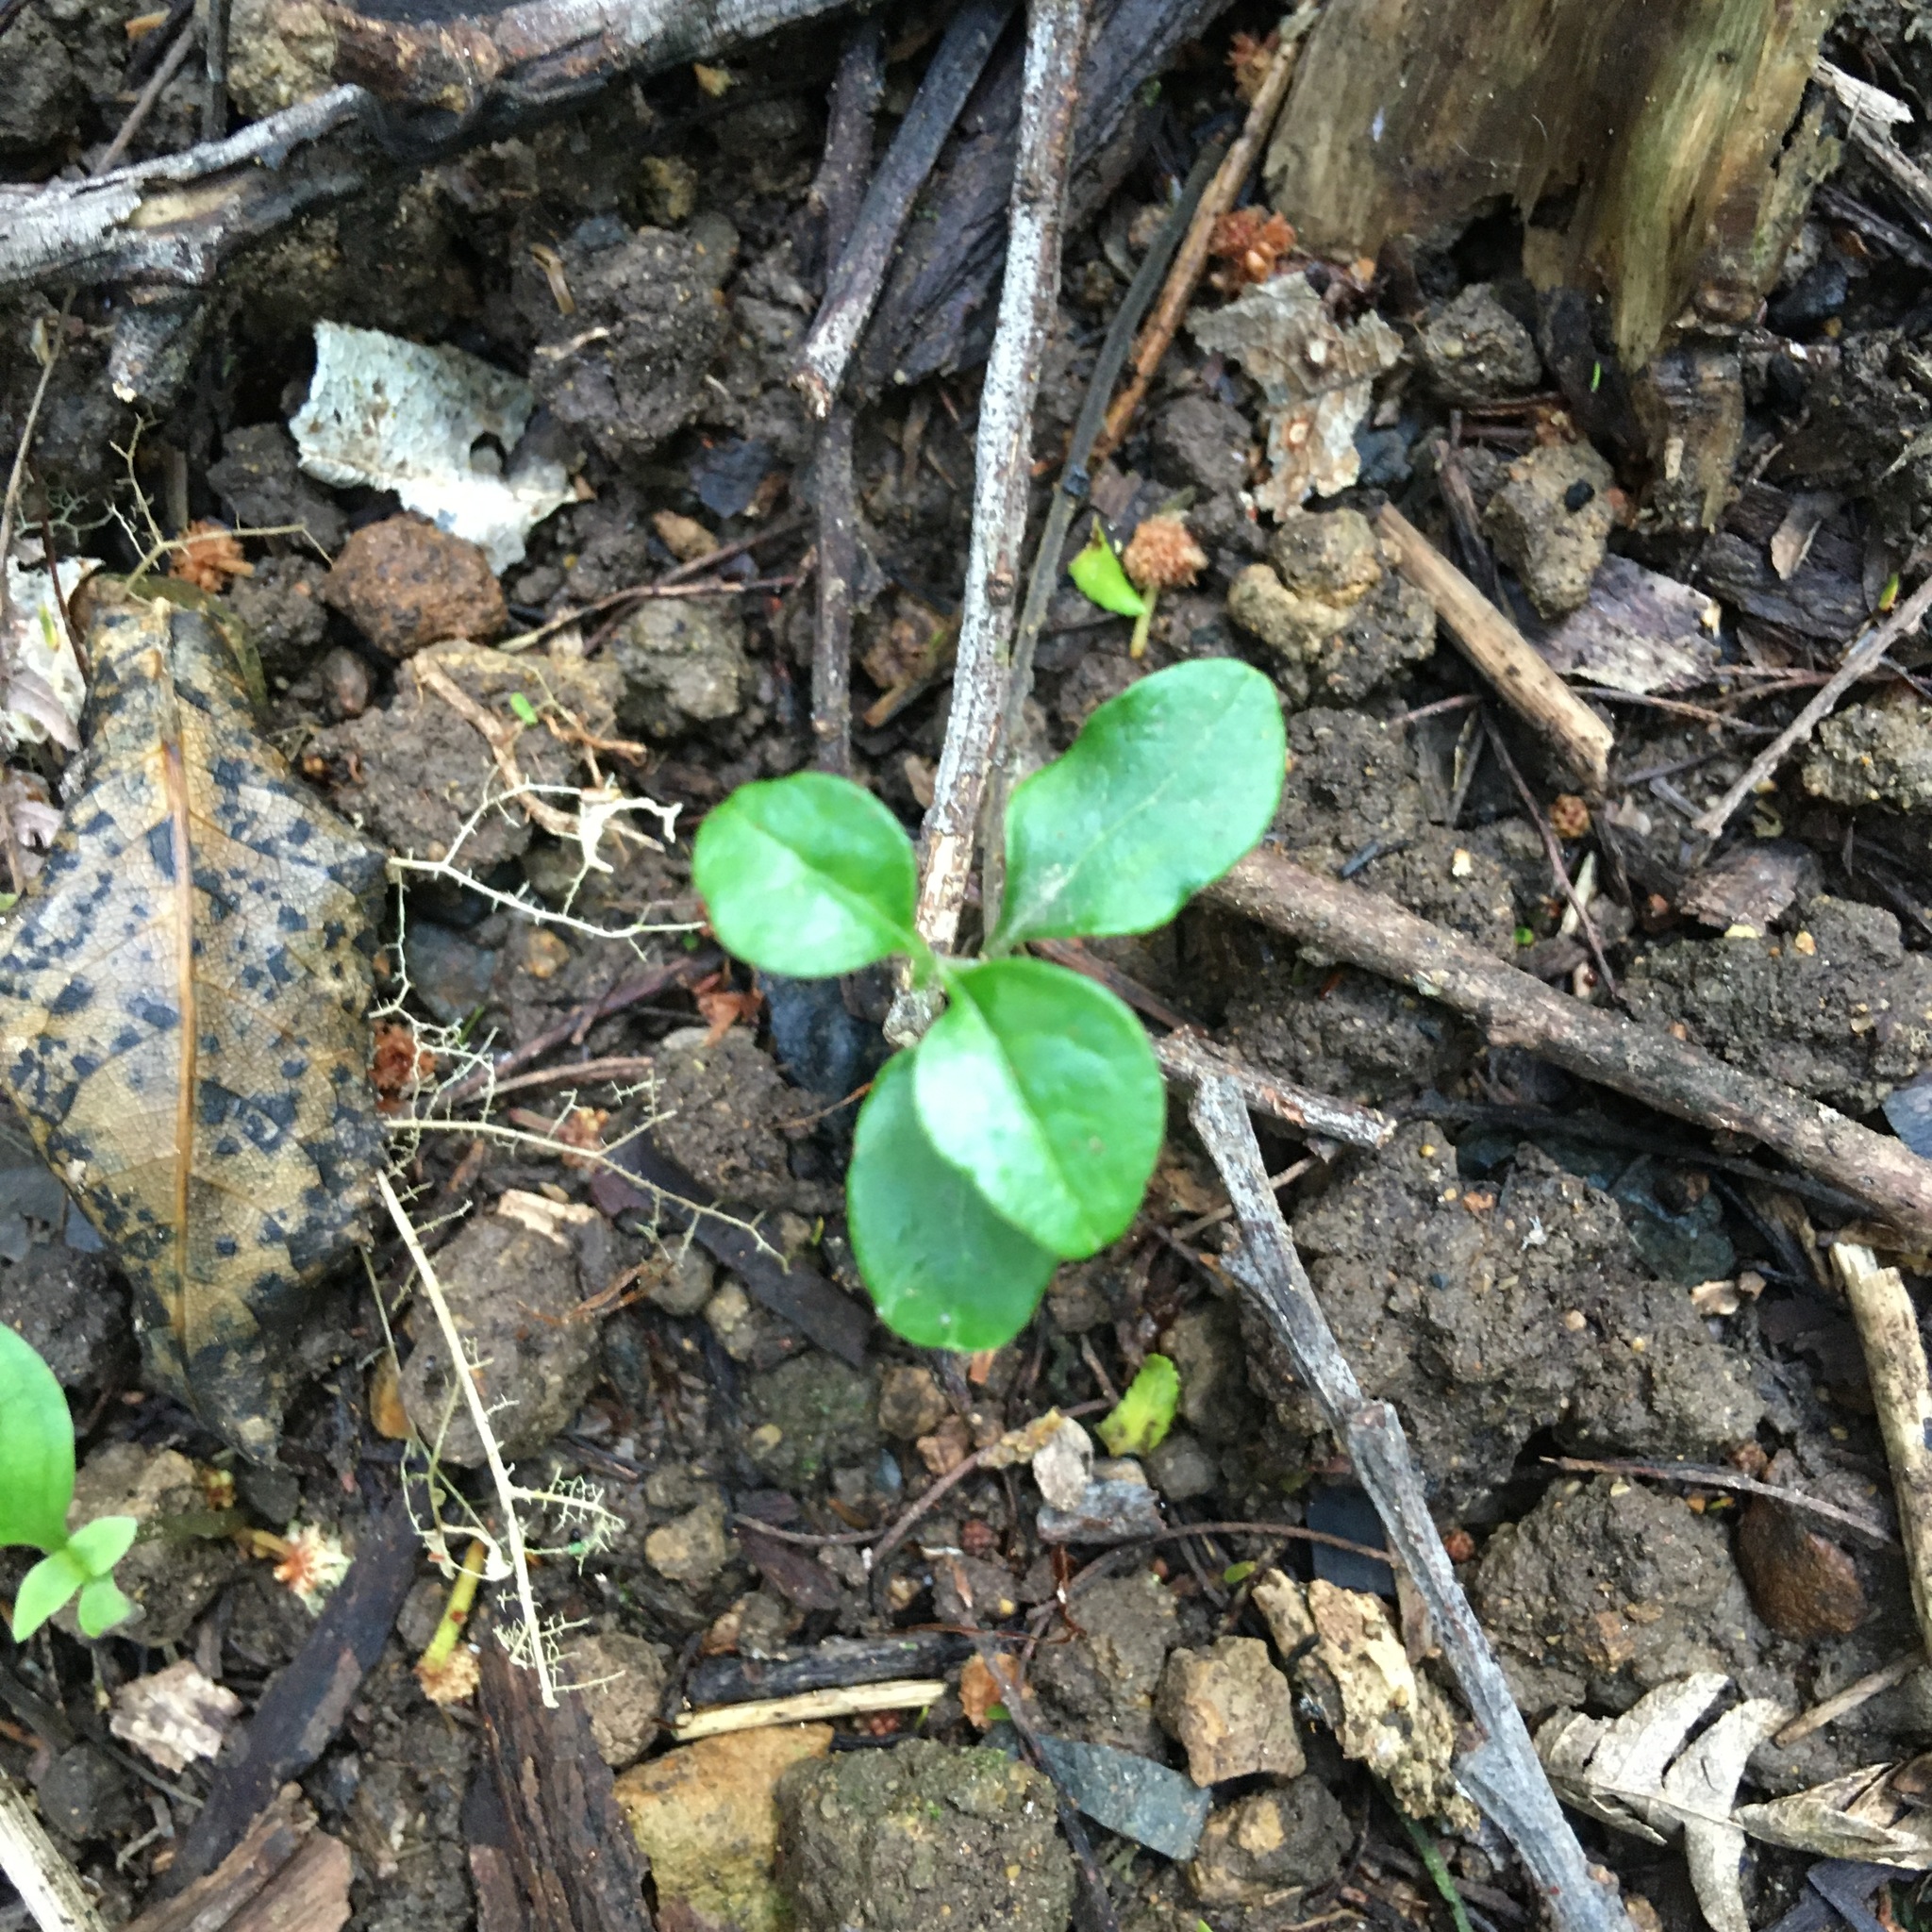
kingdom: Plantae
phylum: Tracheophyta
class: Magnoliopsida
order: Lamiales
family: Oleaceae
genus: Ligustrum
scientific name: Ligustrum lucidum
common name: Glossy privet
